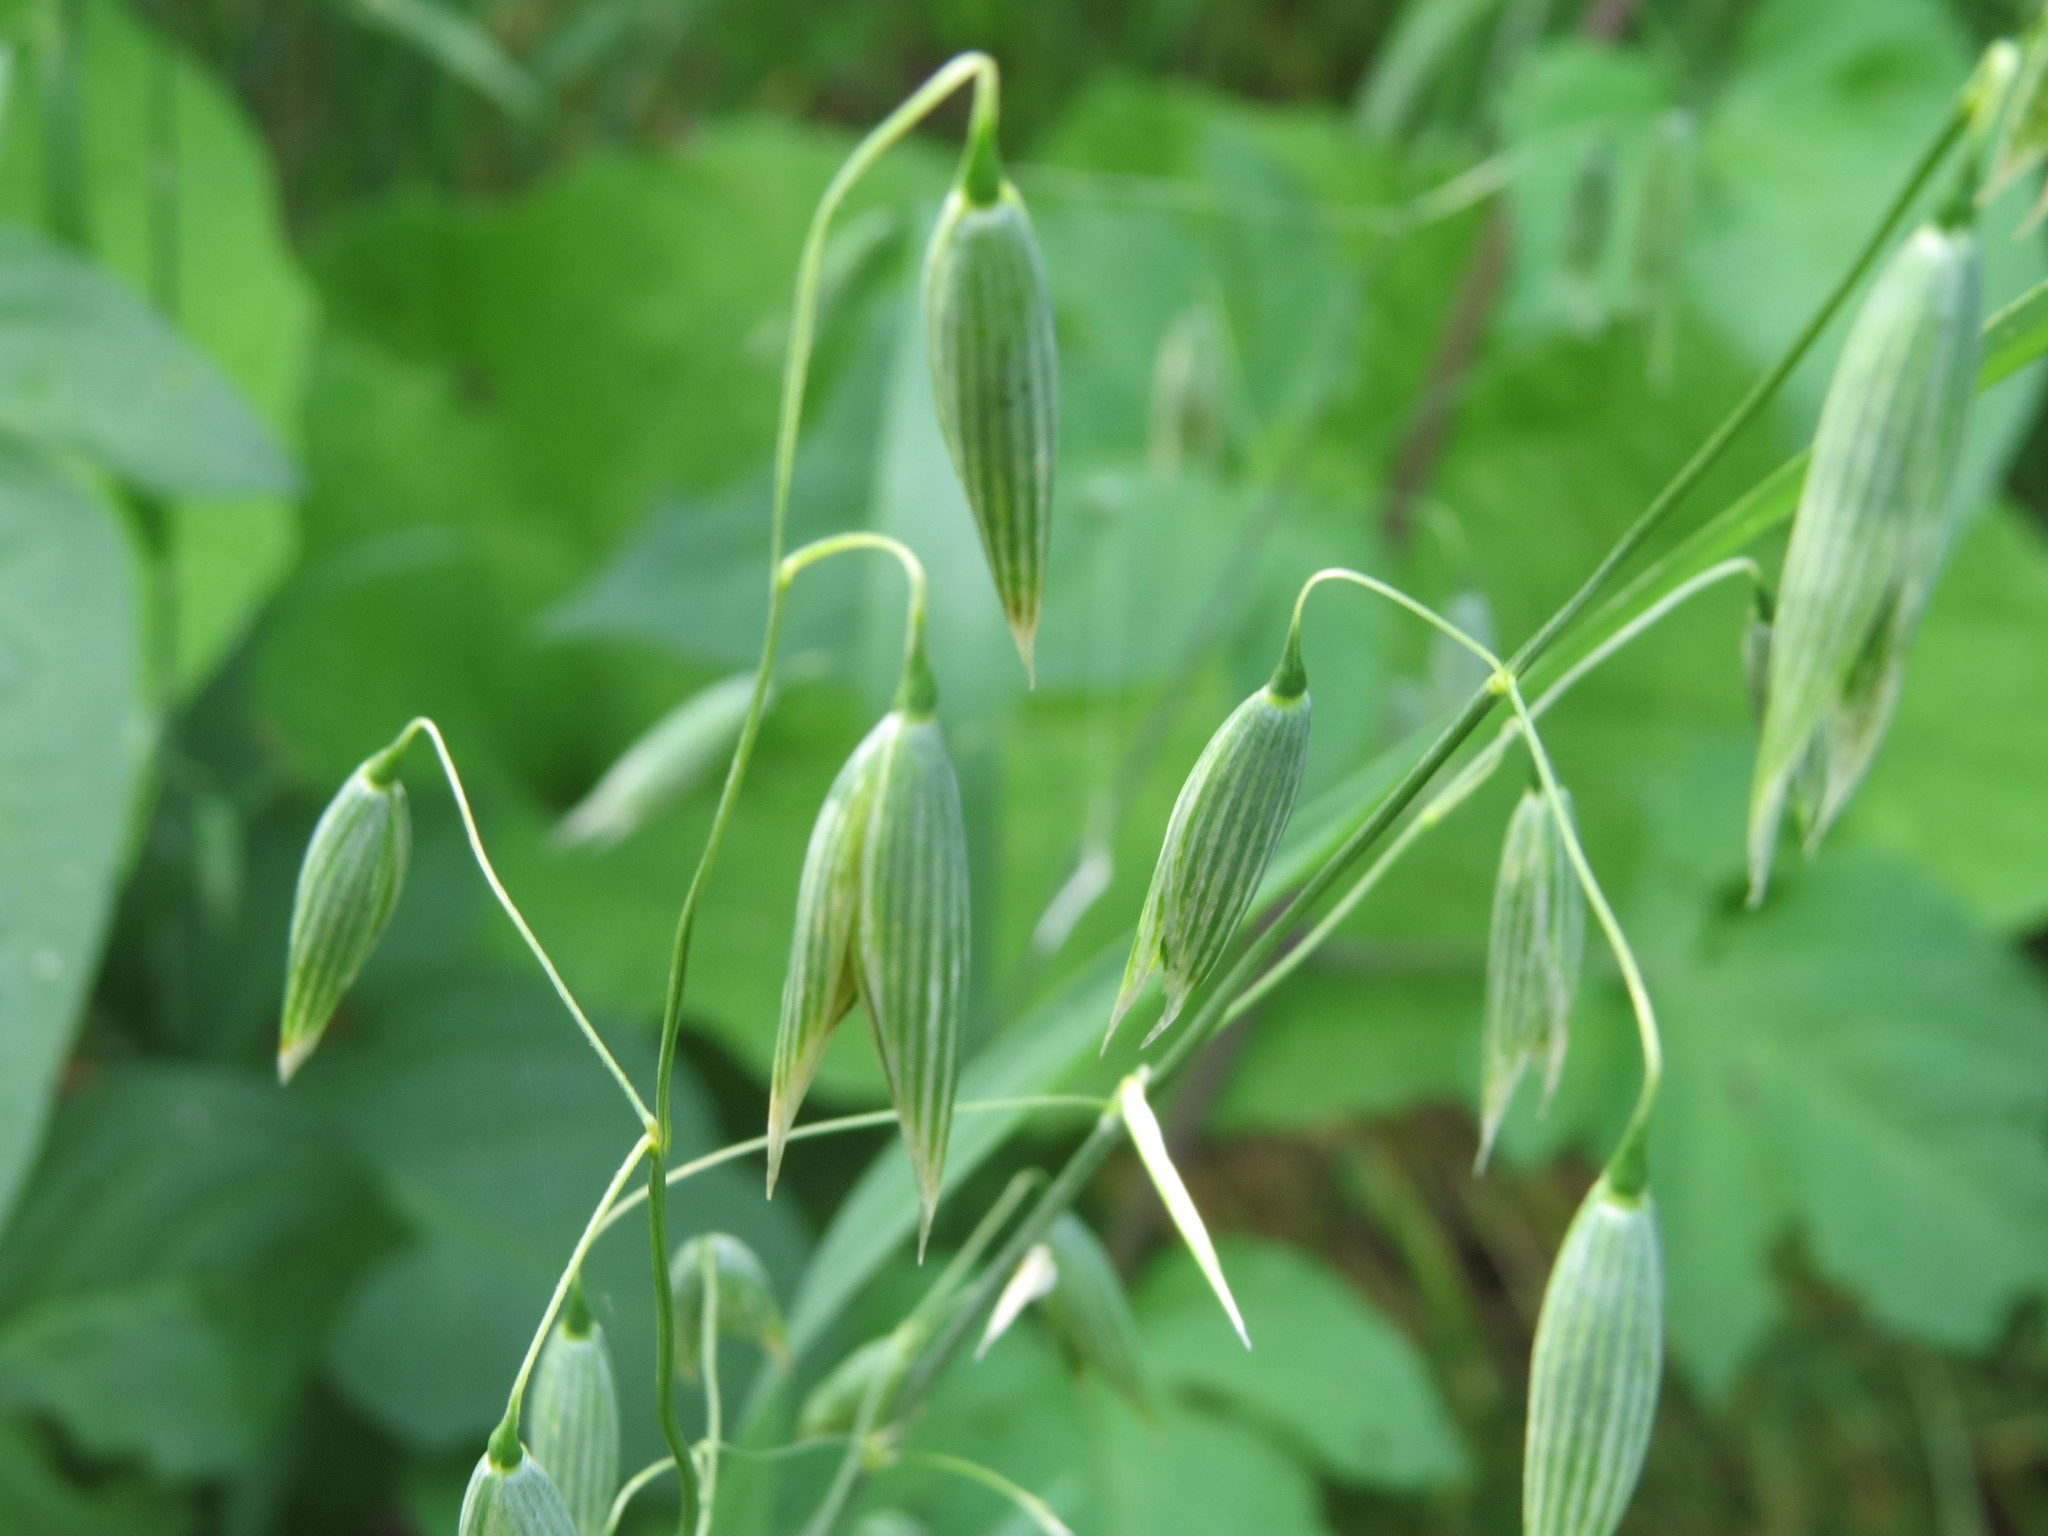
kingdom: Plantae
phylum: Tracheophyta
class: Liliopsida
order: Poales
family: Poaceae
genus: Avena
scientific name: Avena sativa
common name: Oat
